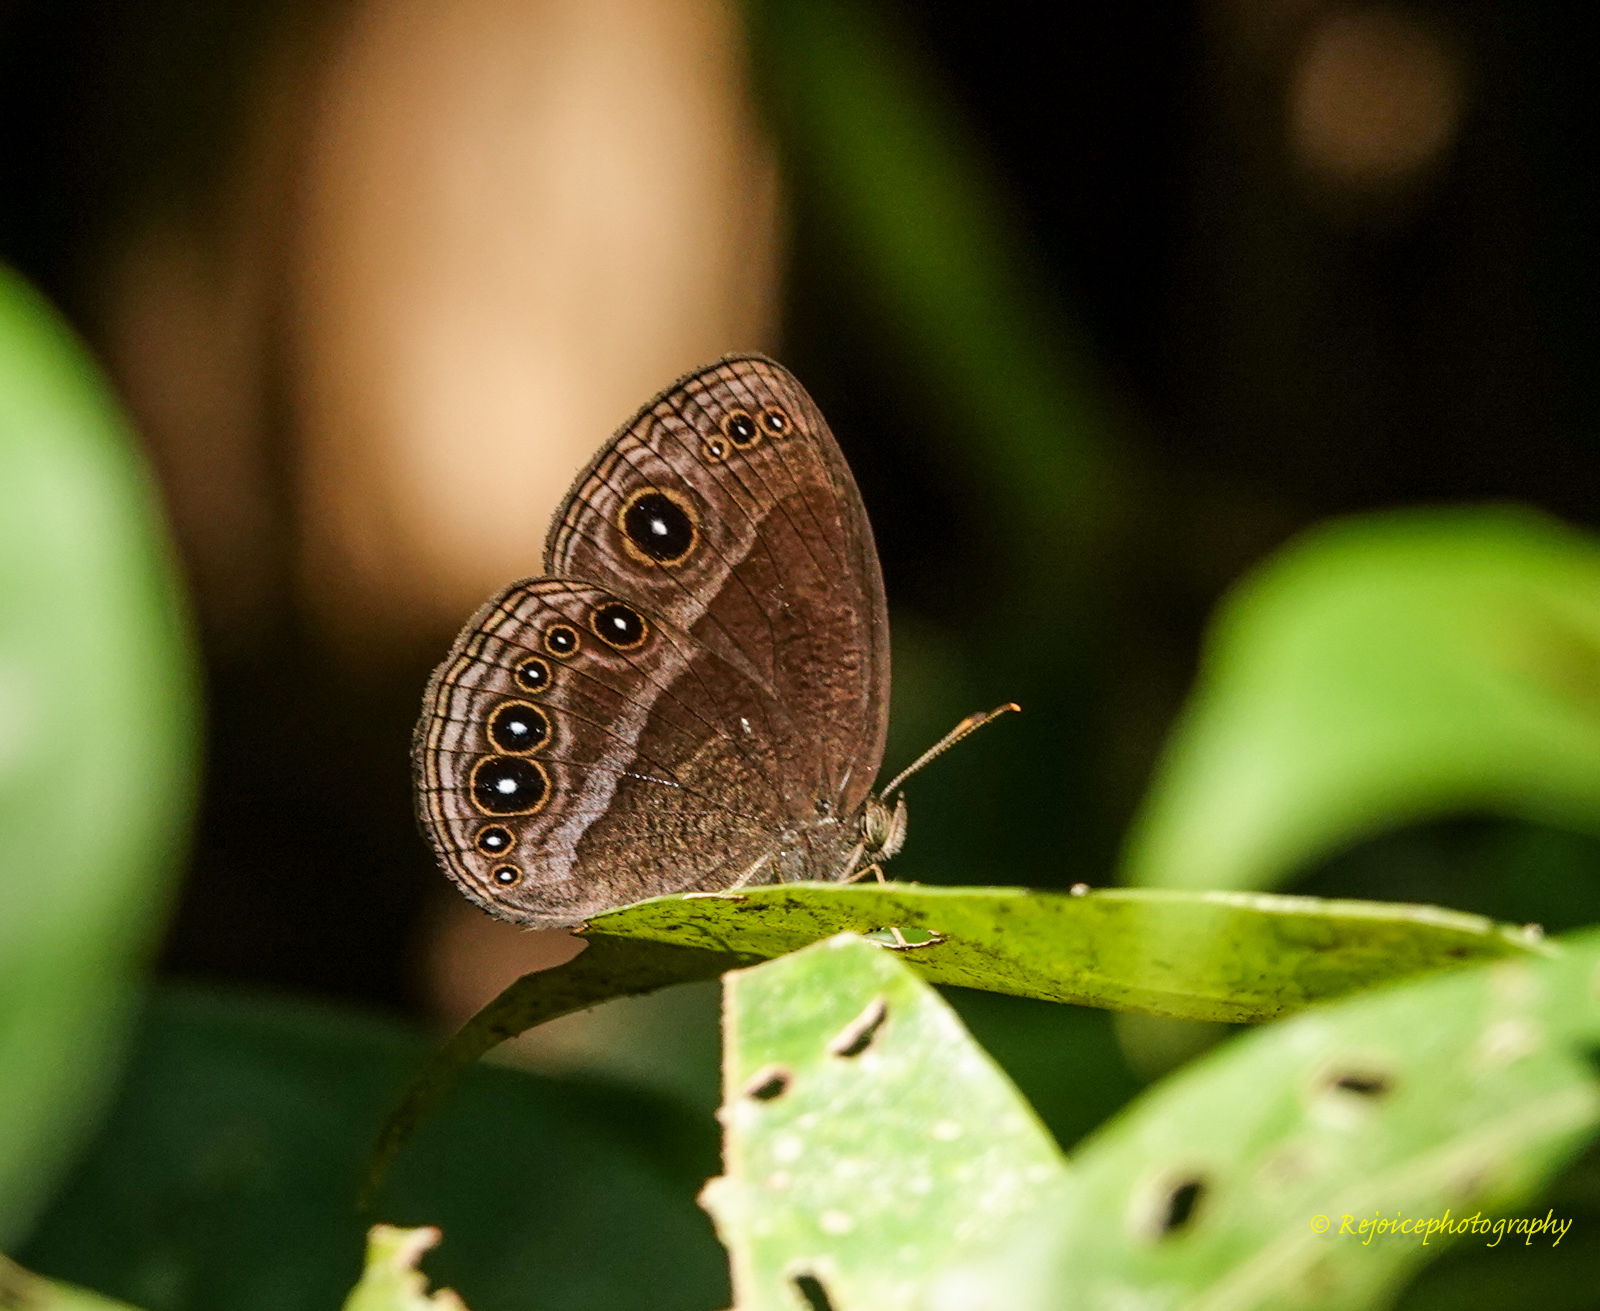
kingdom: Animalia
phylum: Arthropoda
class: Insecta
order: Lepidoptera
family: Nymphalidae
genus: Mycalesis
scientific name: Mycalesis perseus
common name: Dingy bushbrown
